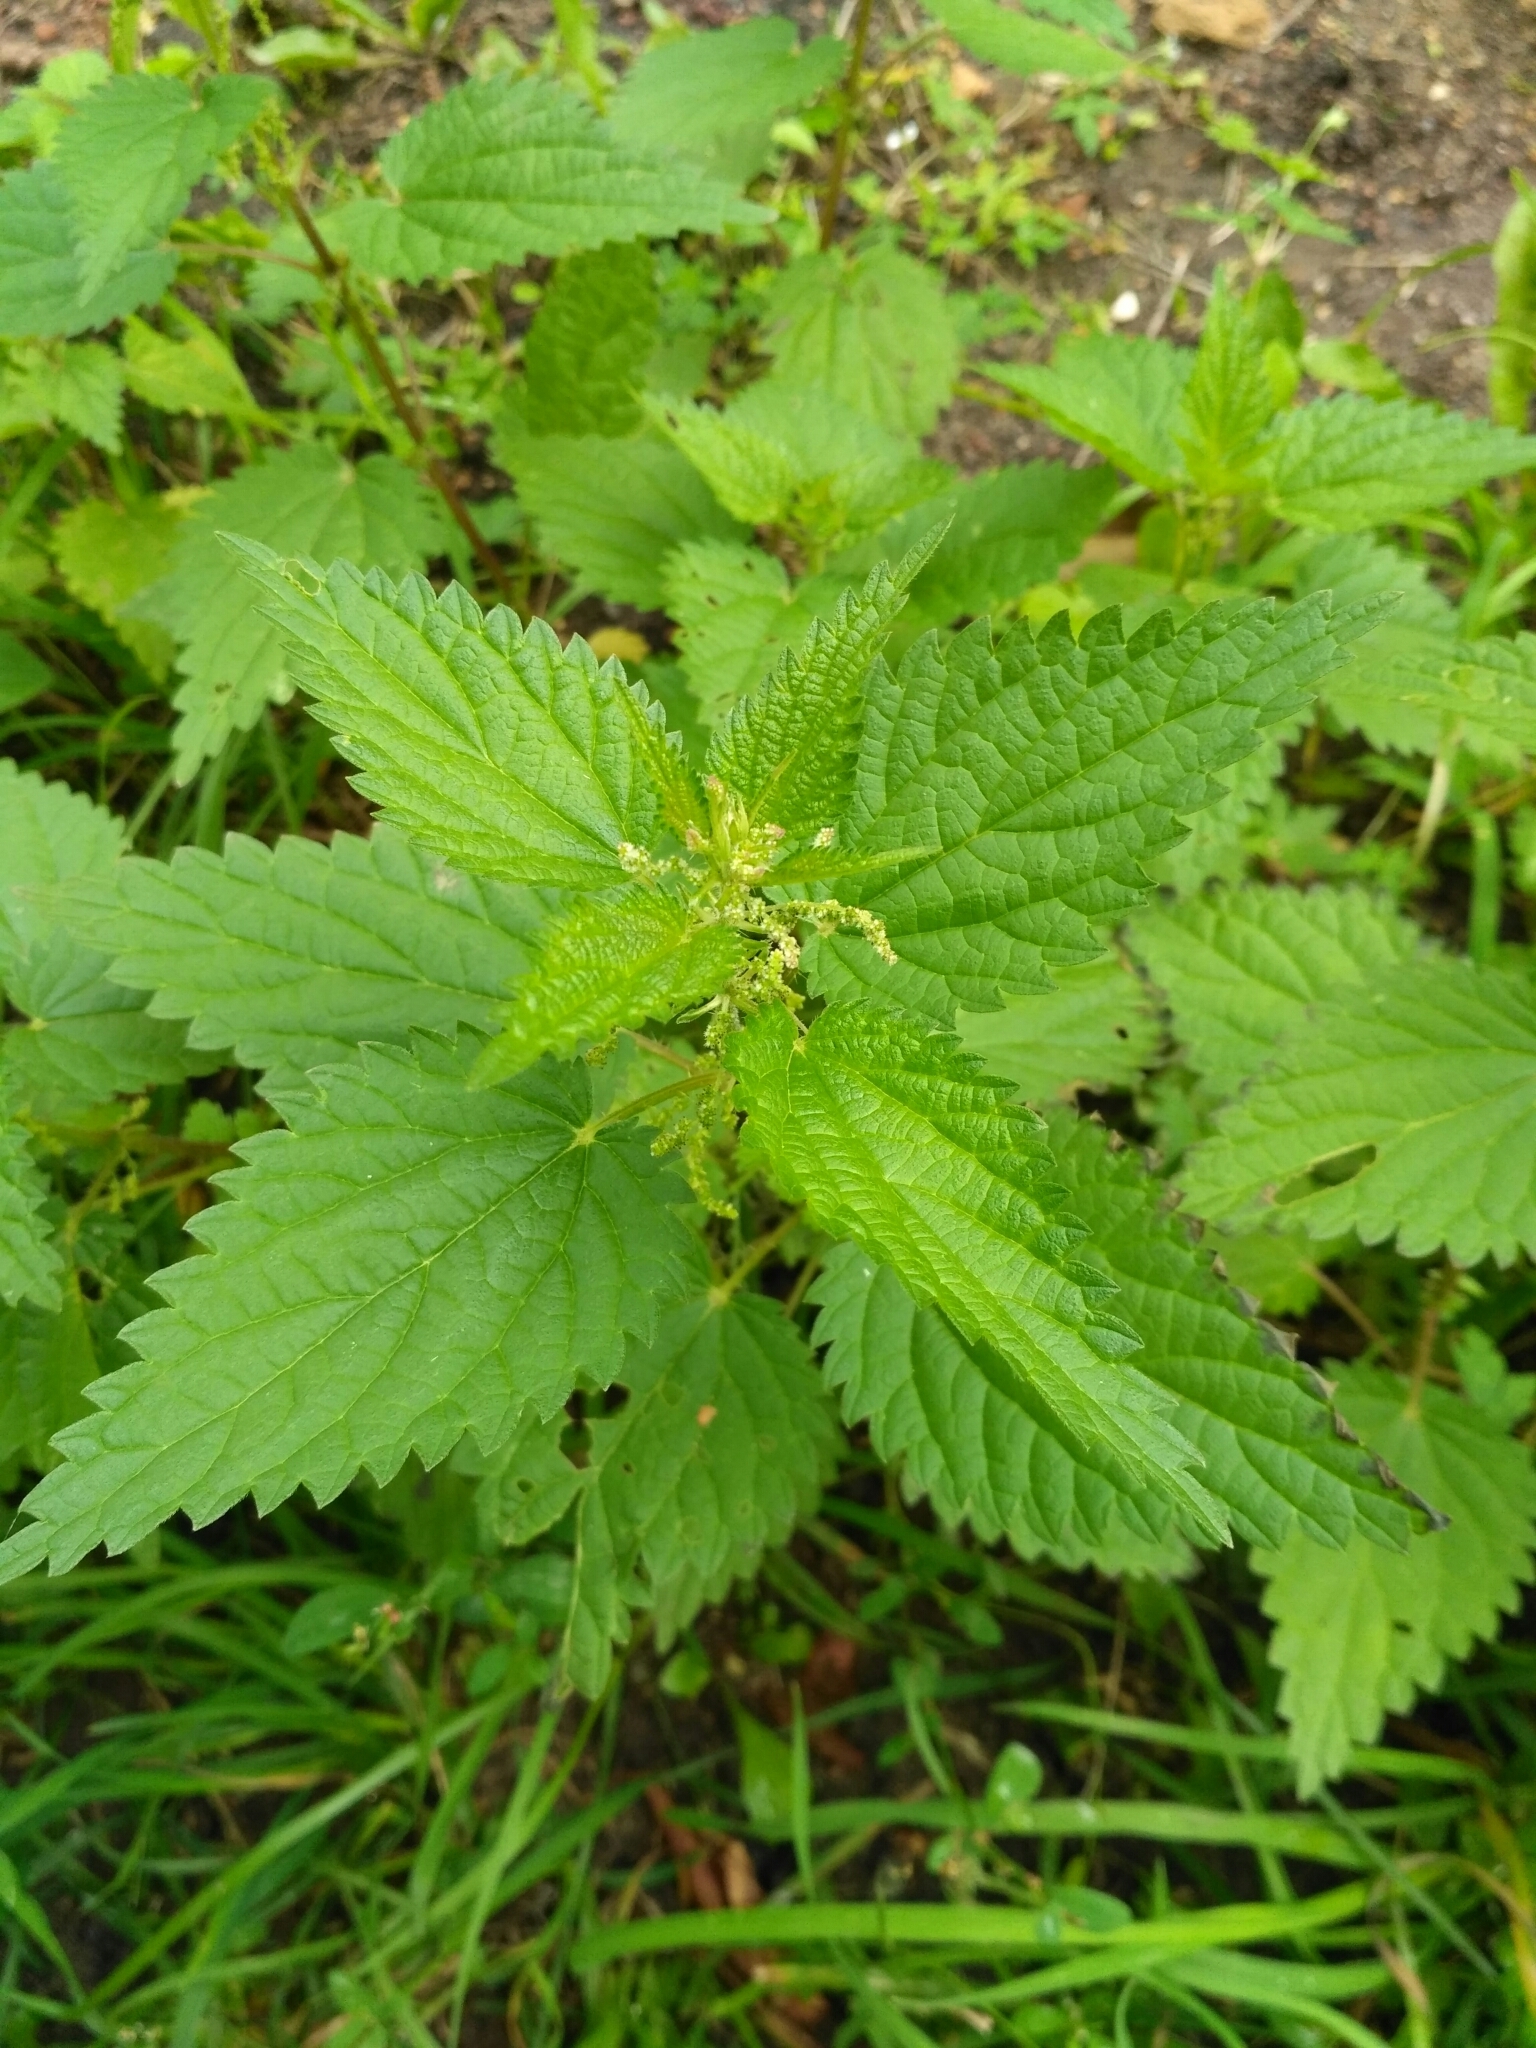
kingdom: Plantae
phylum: Tracheophyta
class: Magnoliopsida
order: Rosales
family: Urticaceae
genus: Urtica
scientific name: Urtica dioica
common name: Common nettle
